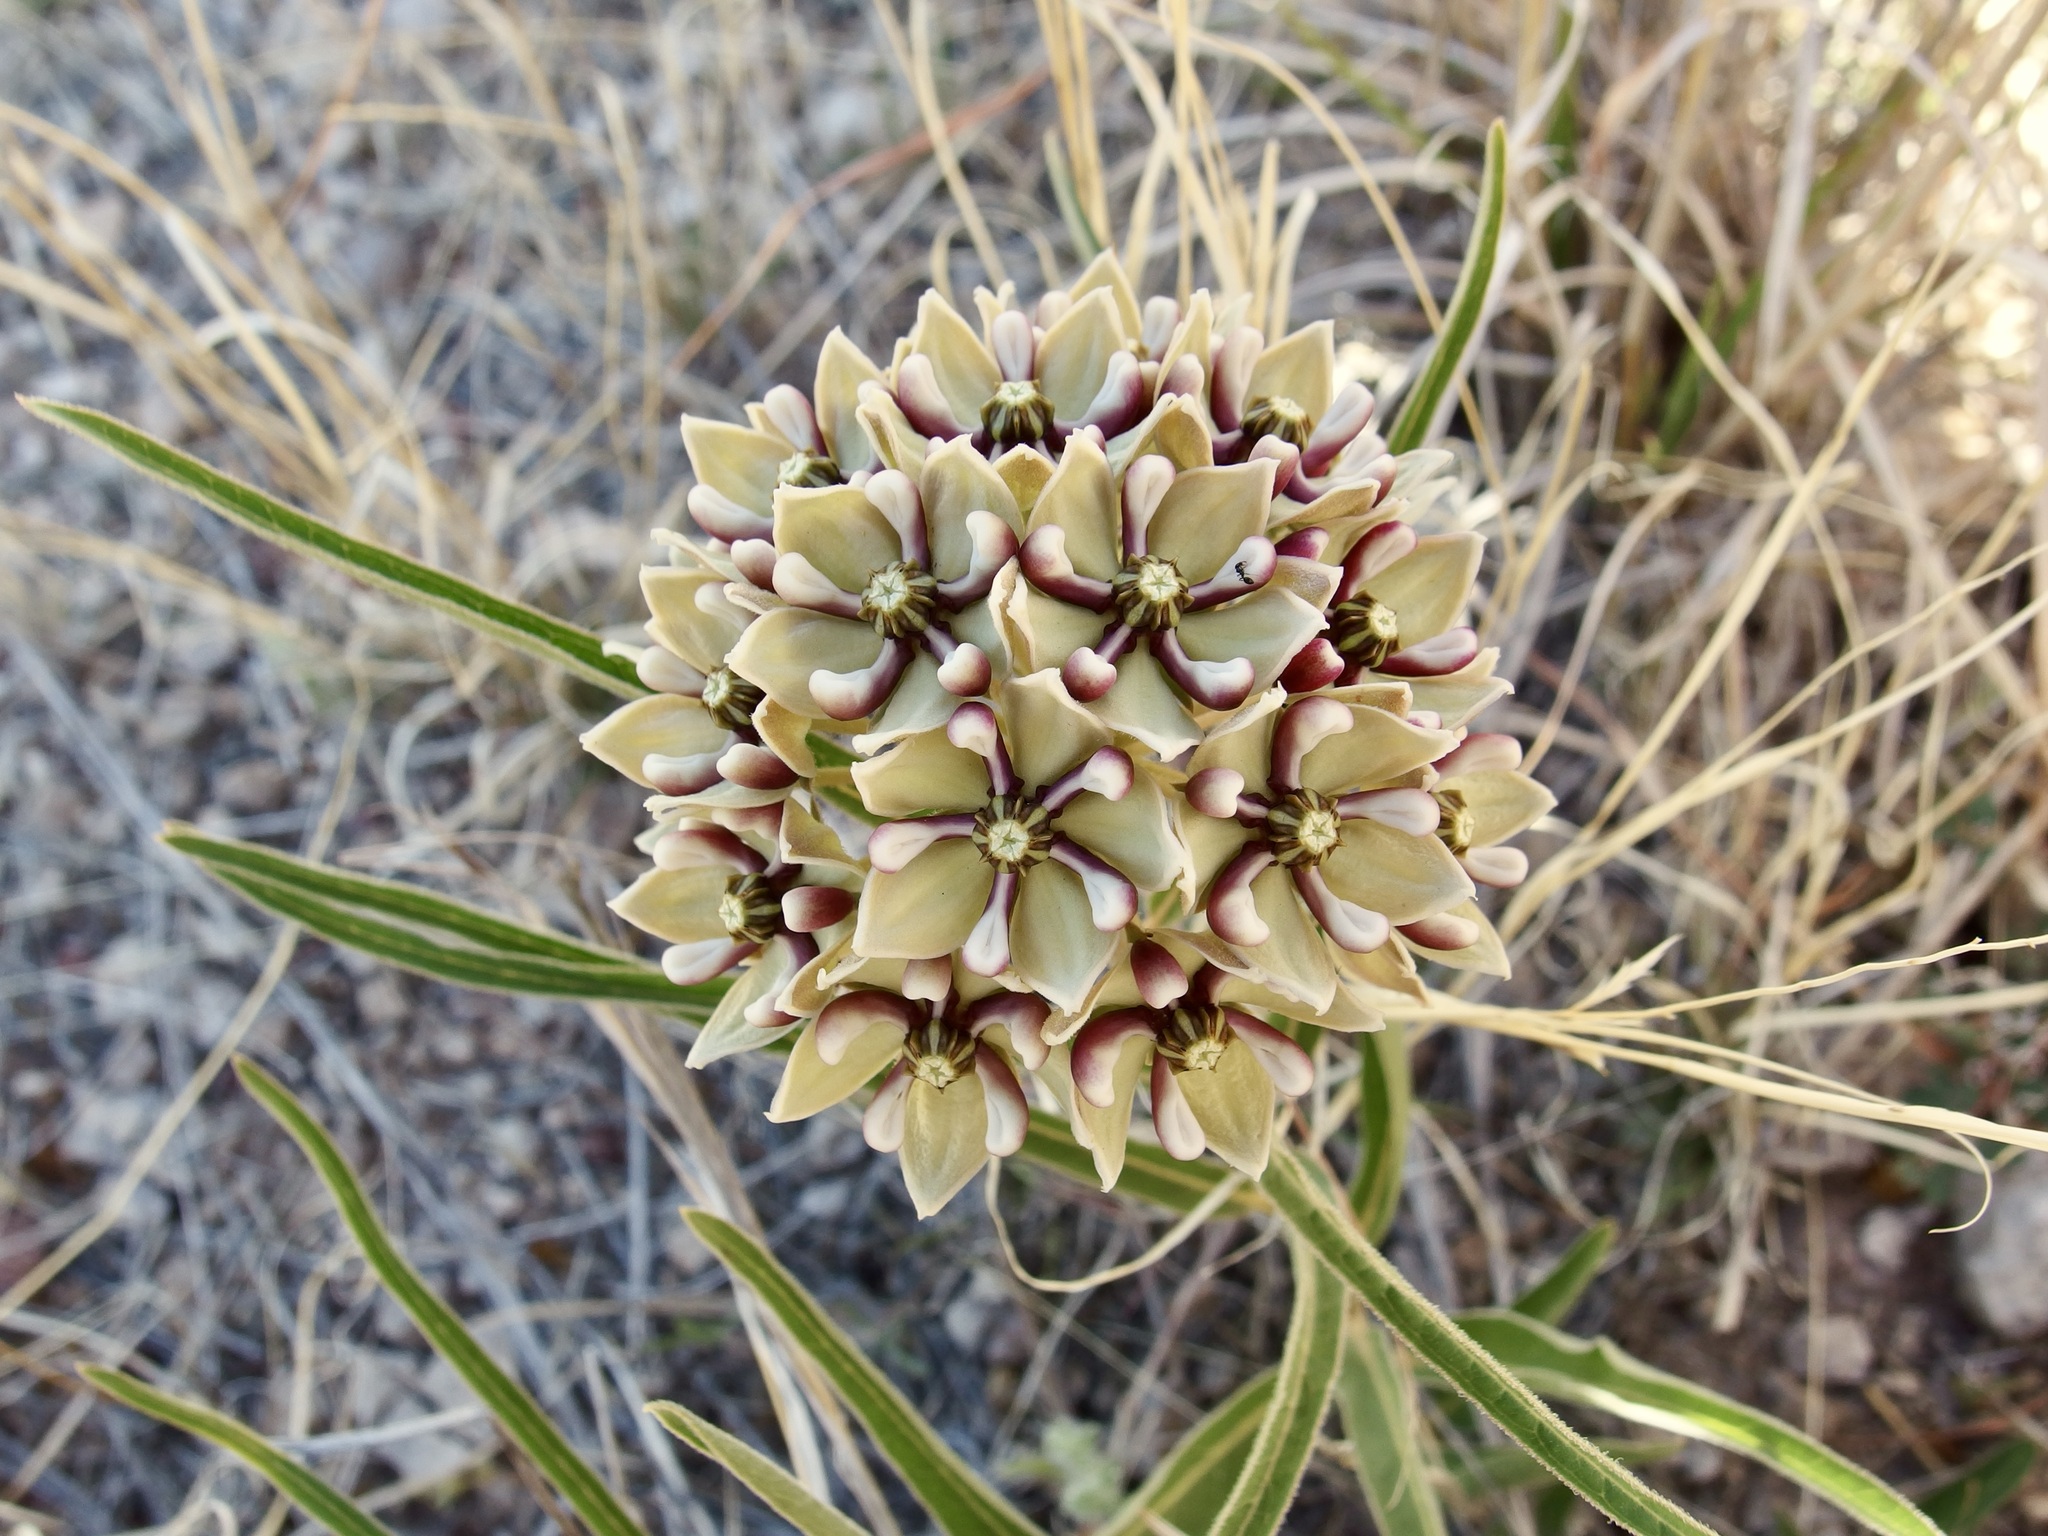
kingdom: Plantae
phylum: Tracheophyta
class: Magnoliopsida
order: Gentianales
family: Apocynaceae
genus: Asclepias
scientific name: Asclepias asperula
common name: Antelope horns
